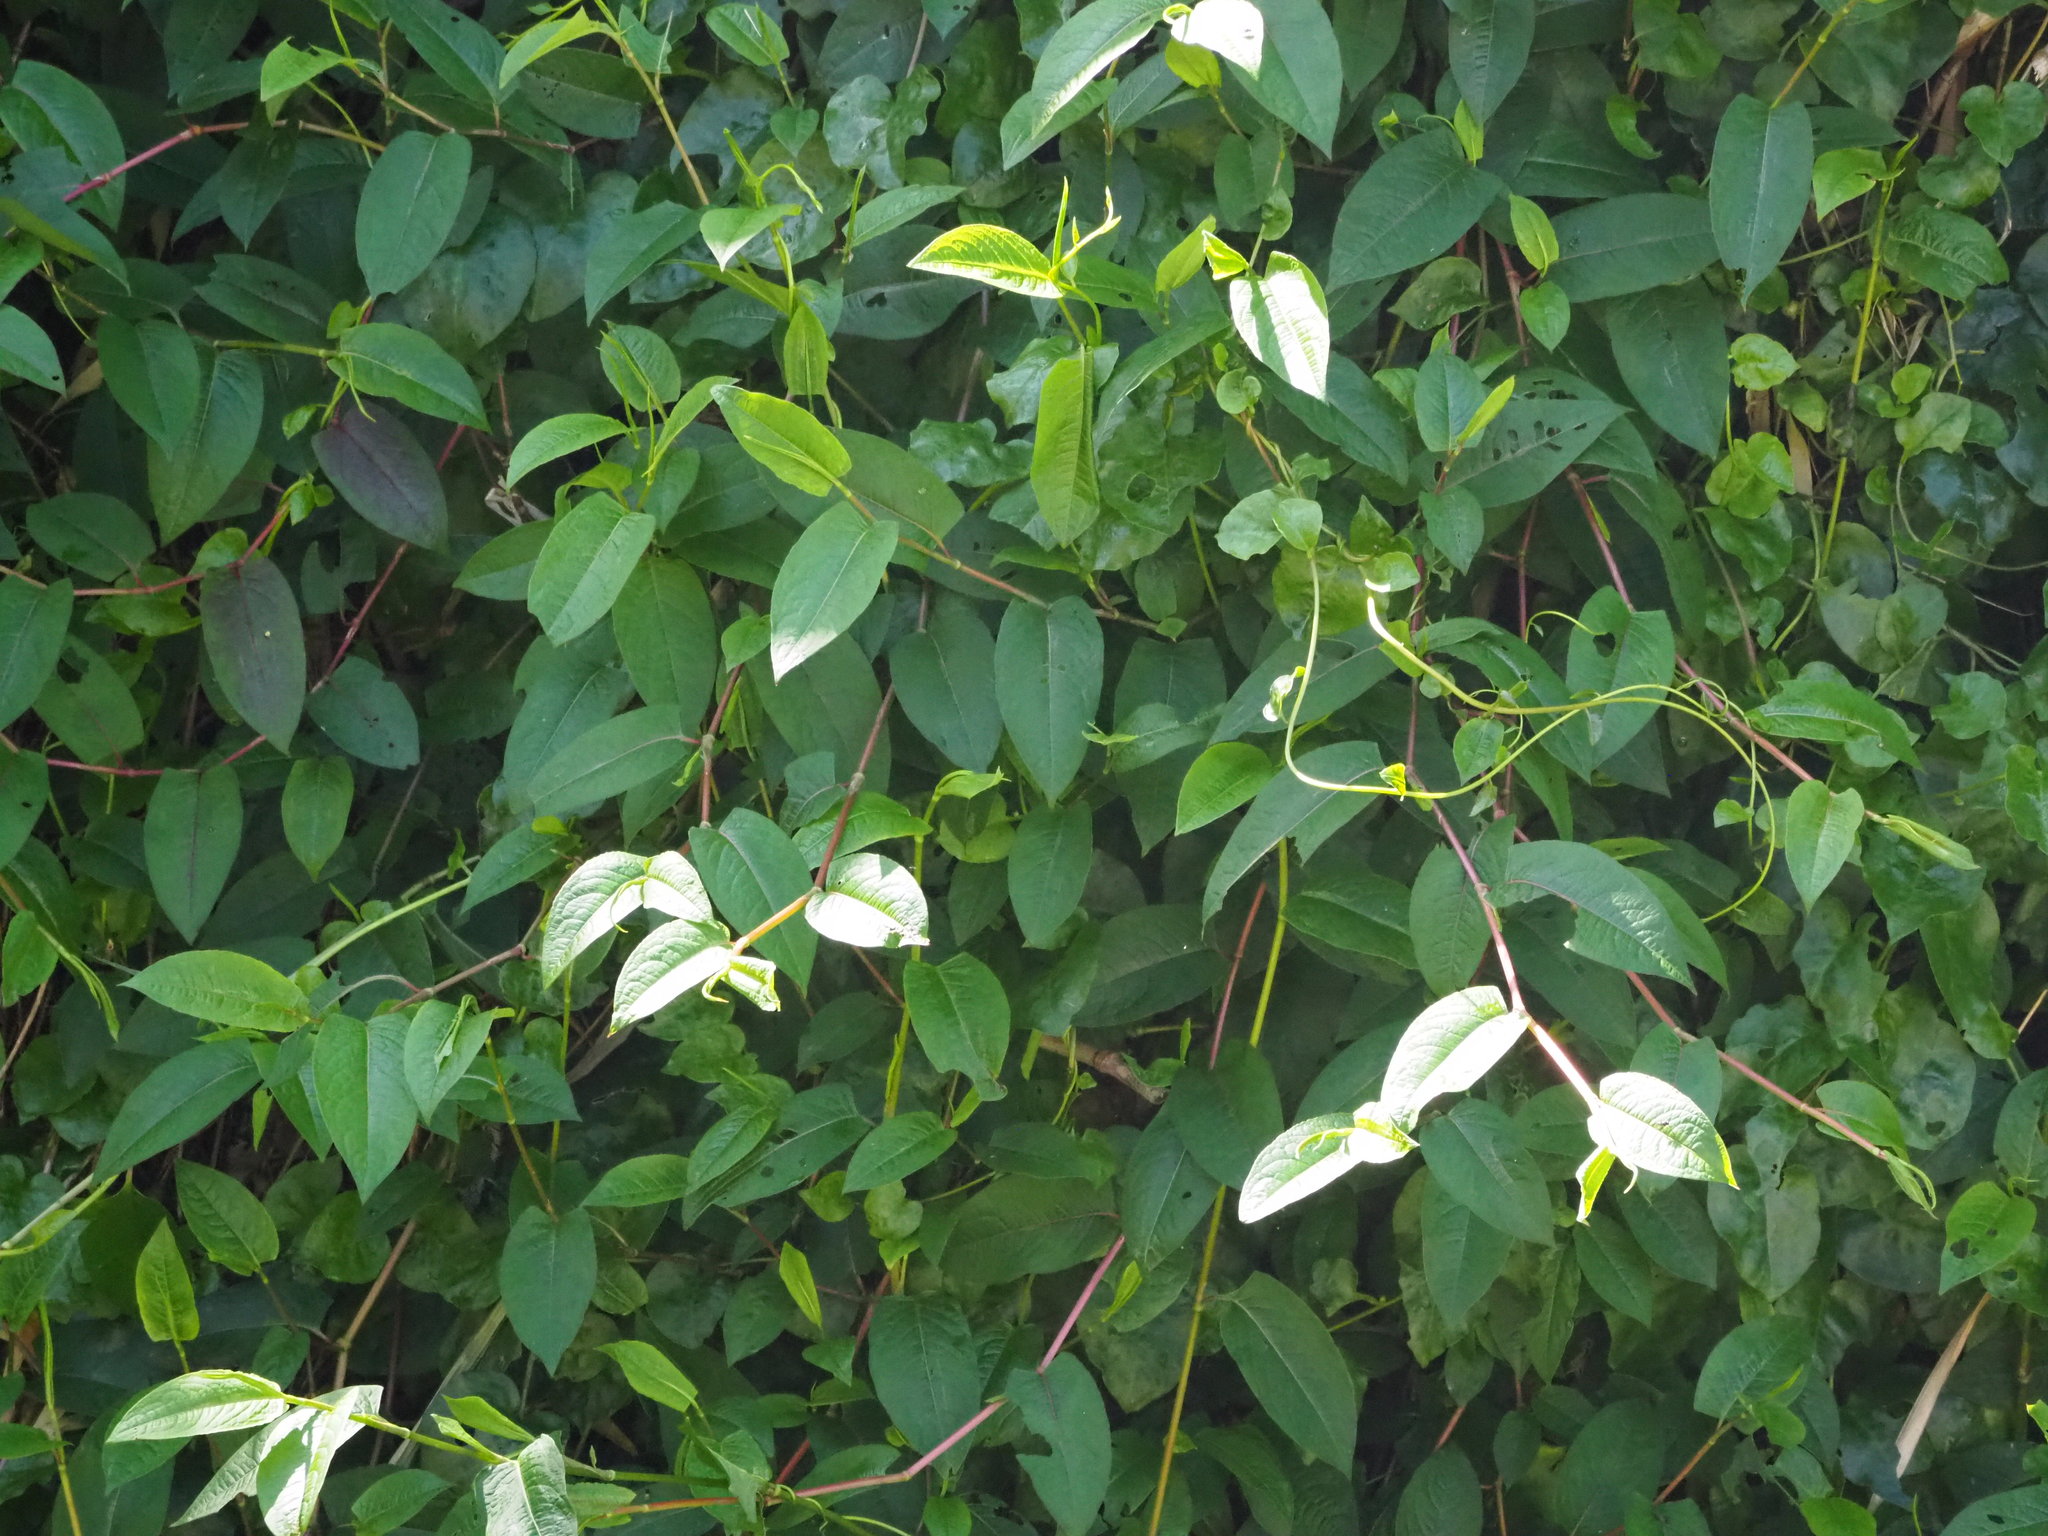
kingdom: Plantae
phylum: Tracheophyta
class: Magnoliopsida
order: Caryophyllales
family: Polygonaceae
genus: Persicaria
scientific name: Persicaria chinensis
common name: Chinese knotweed
